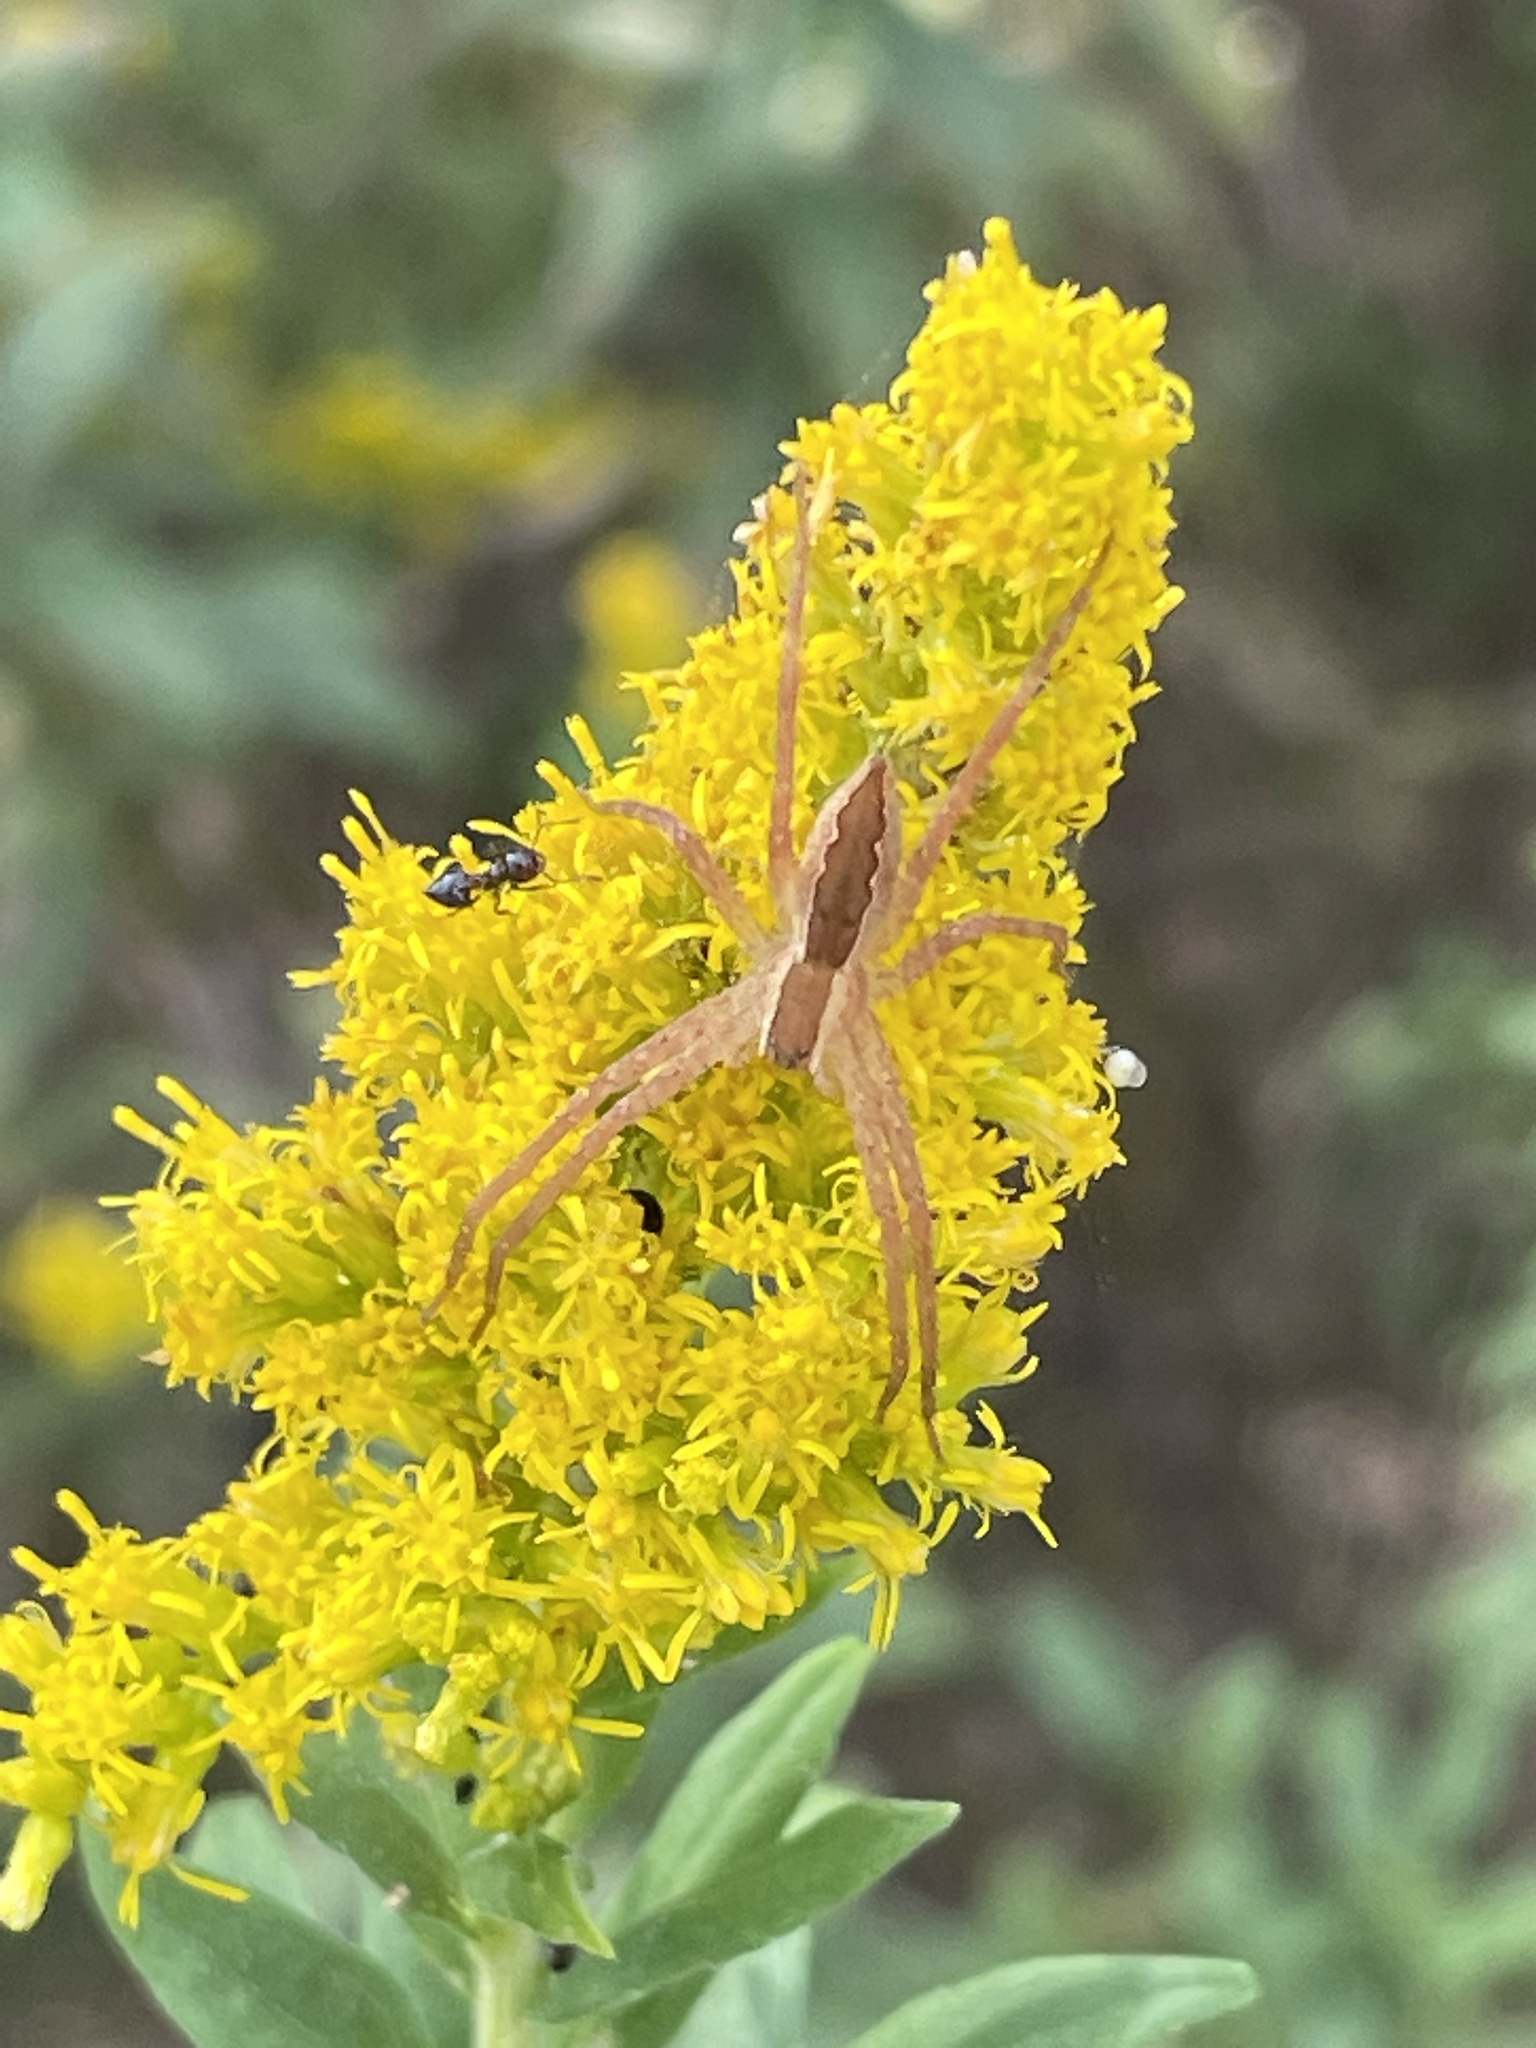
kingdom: Animalia
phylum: Arthropoda
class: Arachnida
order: Araneae
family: Pisauridae
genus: Pisaurina
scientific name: Pisaurina mira
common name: American nursery web spider
